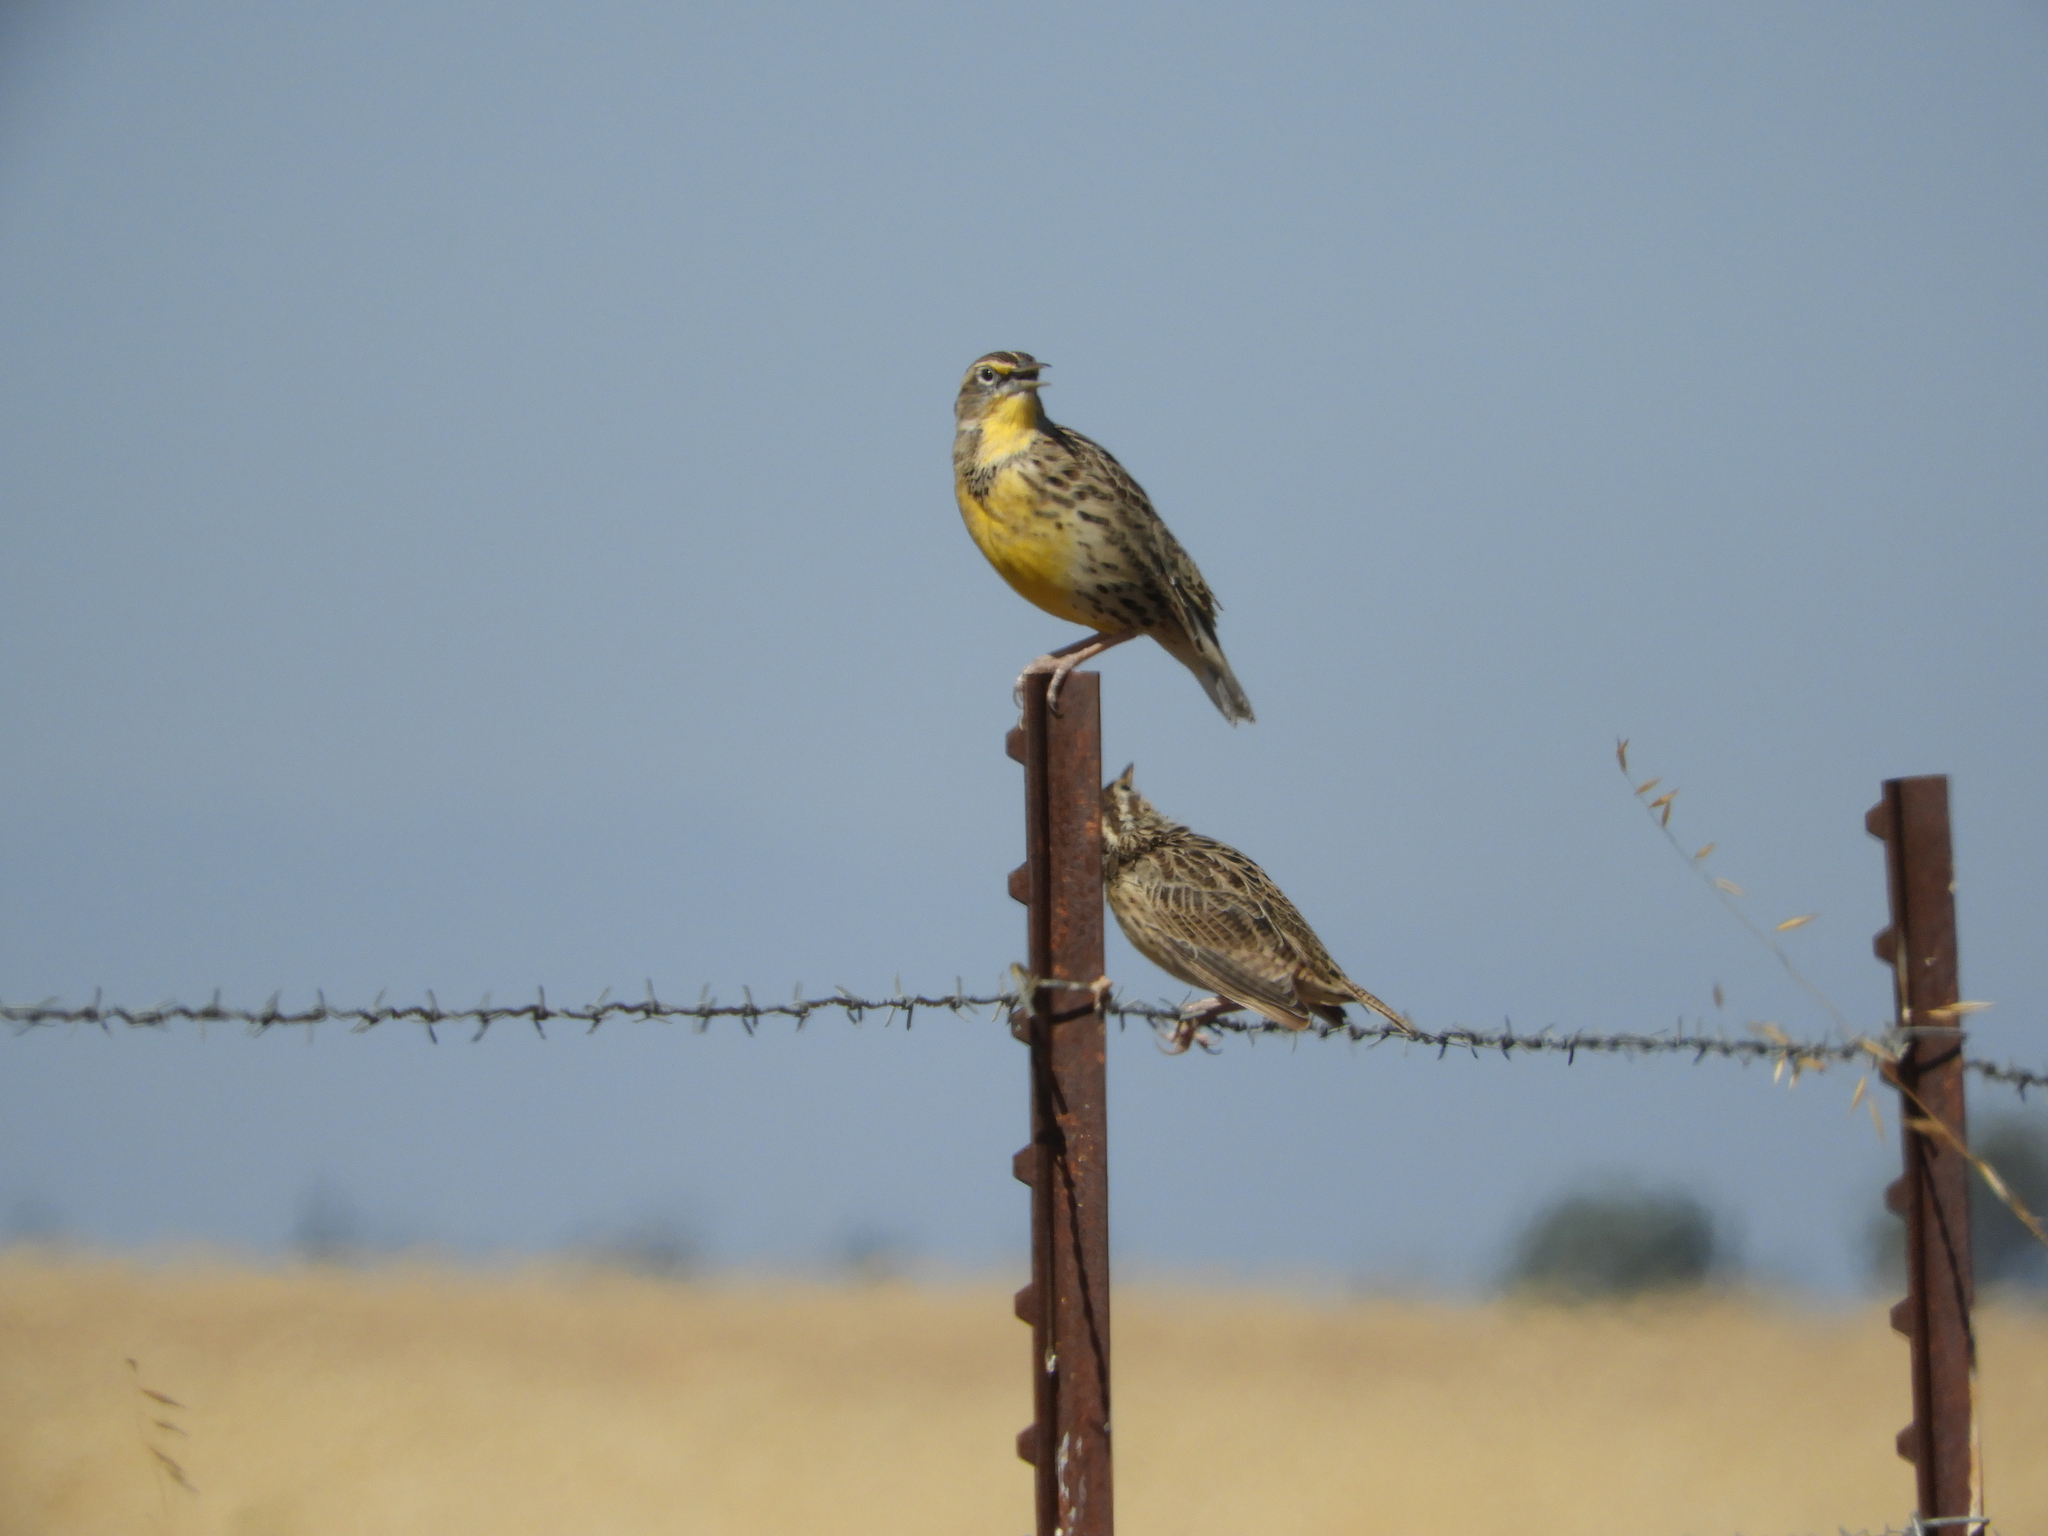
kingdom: Animalia
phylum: Chordata
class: Aves
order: Passeriformes
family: Icteridae
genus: Sturnella
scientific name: Sturnella neglecta
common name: Western meadowlark
